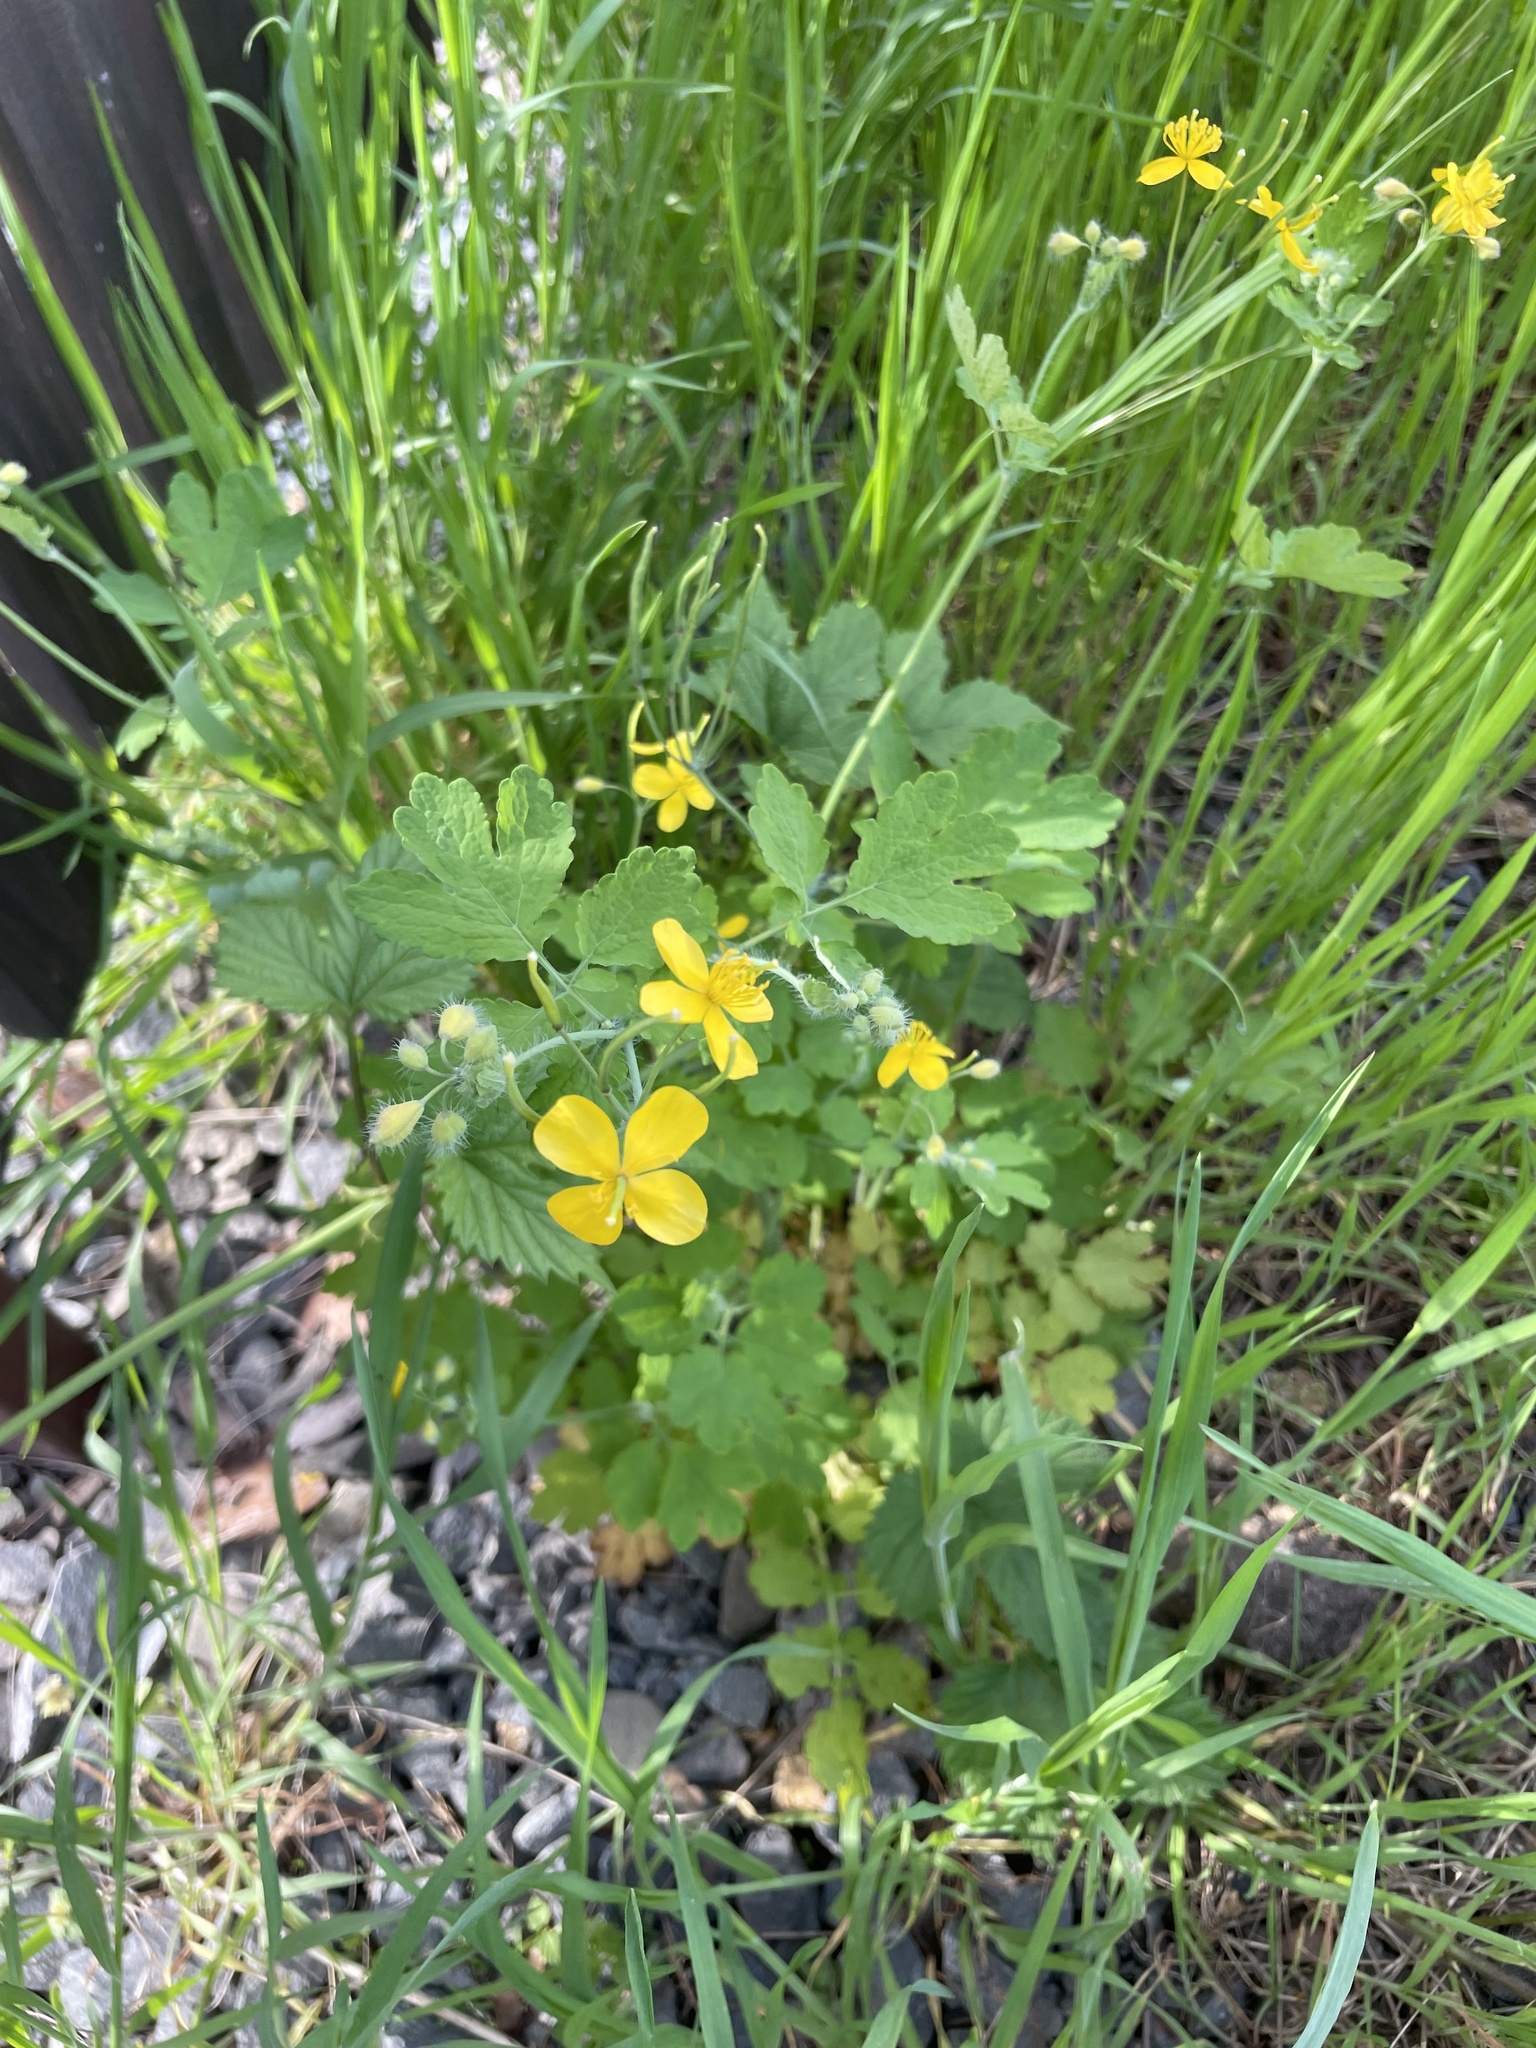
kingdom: Plantae
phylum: Tracheophyta
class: Magnoliopsida
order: Ranunculales
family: Papaveraceae
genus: Chelidonium
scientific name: Chelidonium majus
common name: Greater celandine
